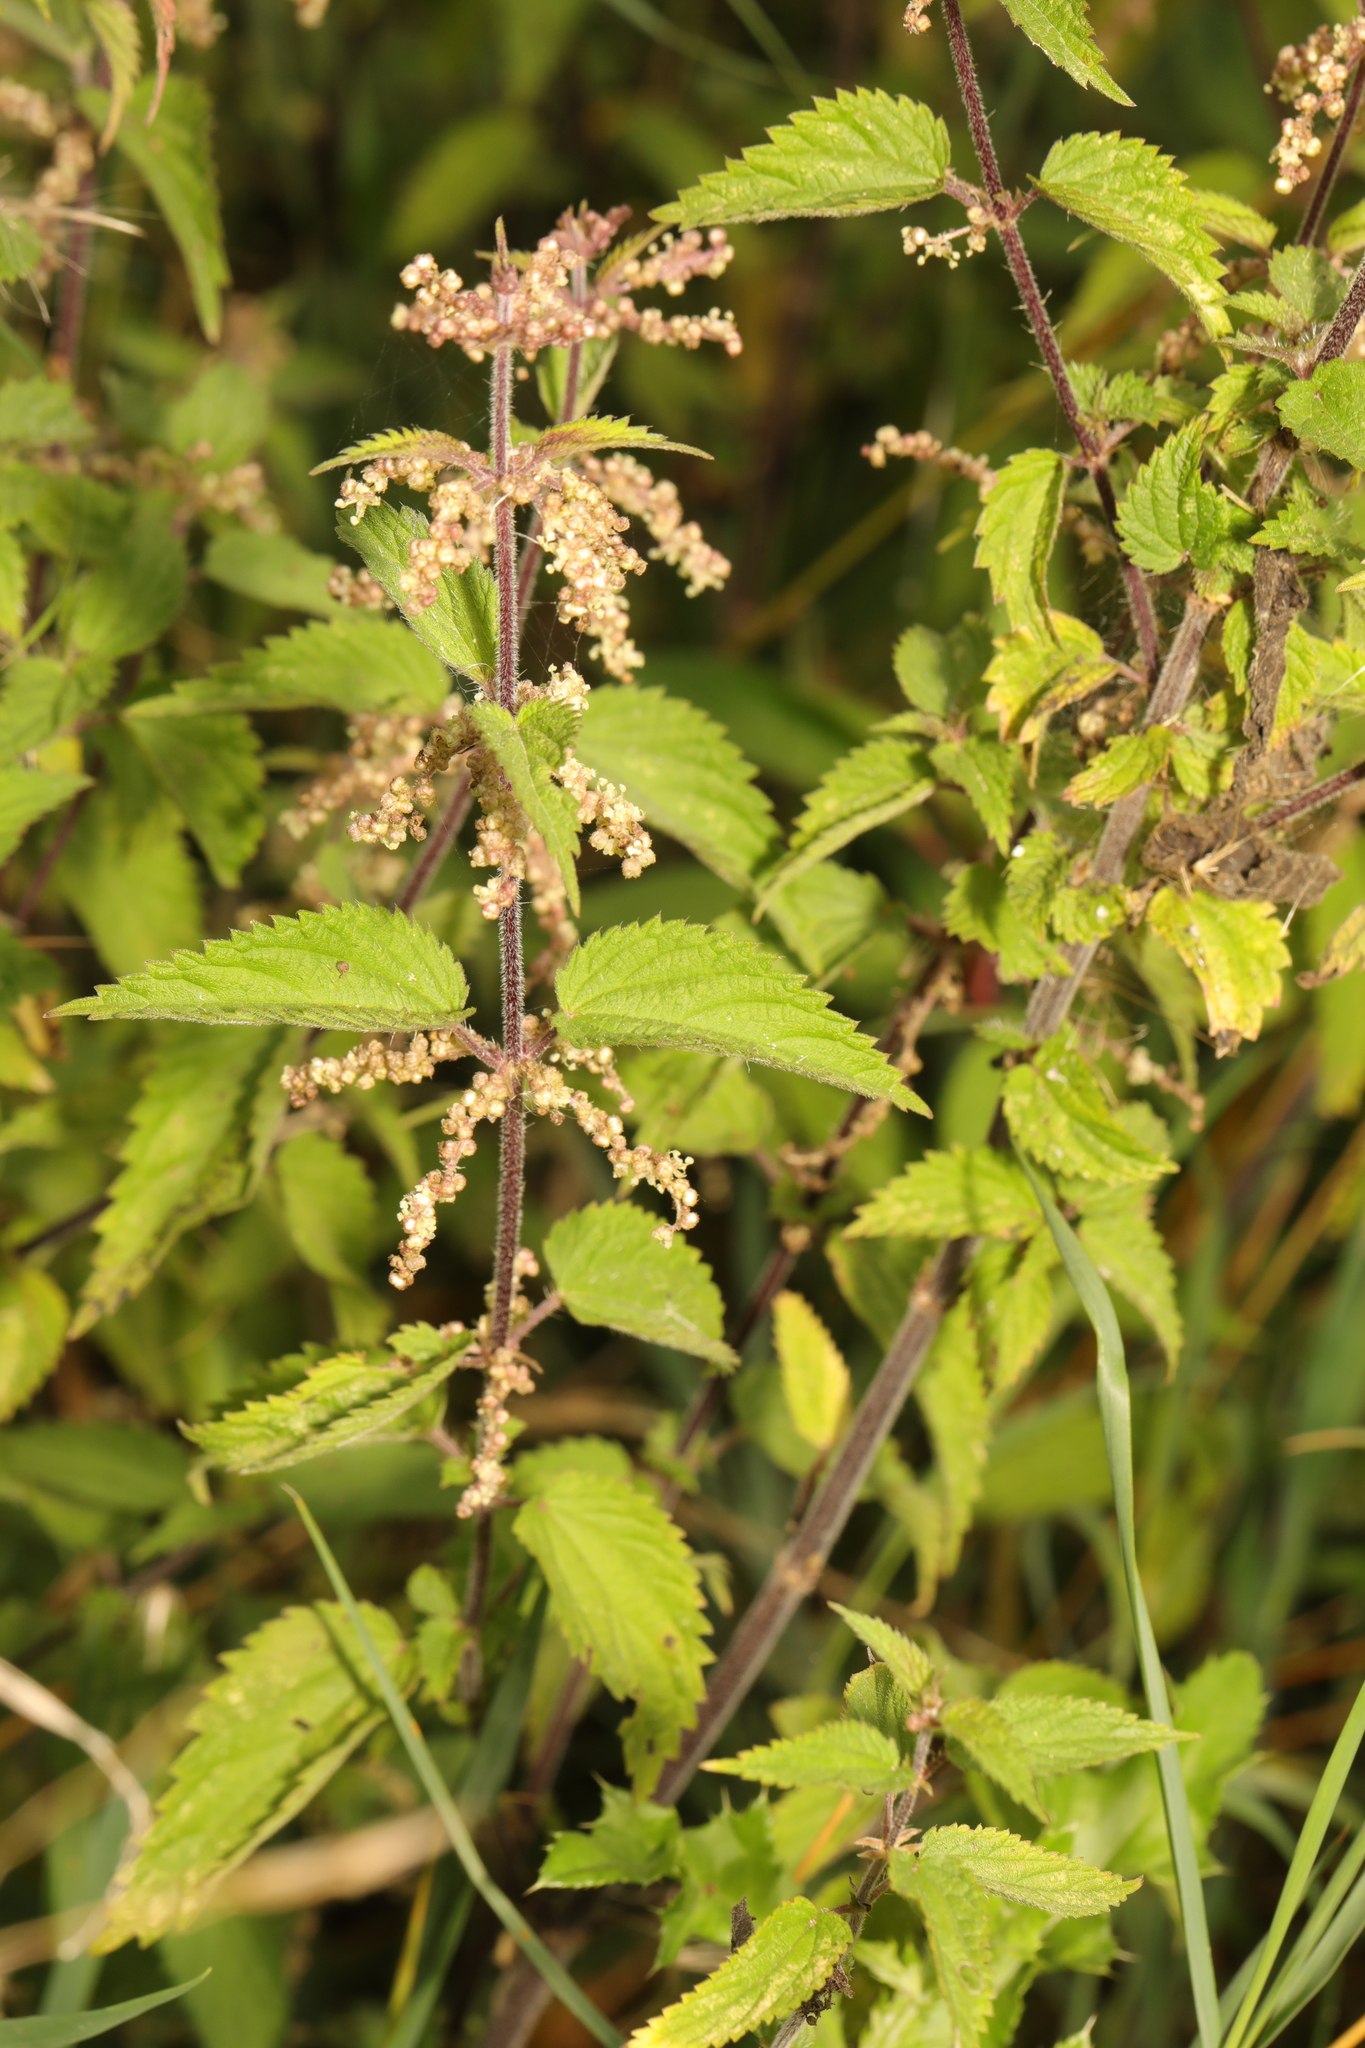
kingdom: Plantae
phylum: Tracheophyta
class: Magnoliopsida
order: Rosales
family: Urticaceae
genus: Urtica
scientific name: Urtica dioica
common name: Common nettle
